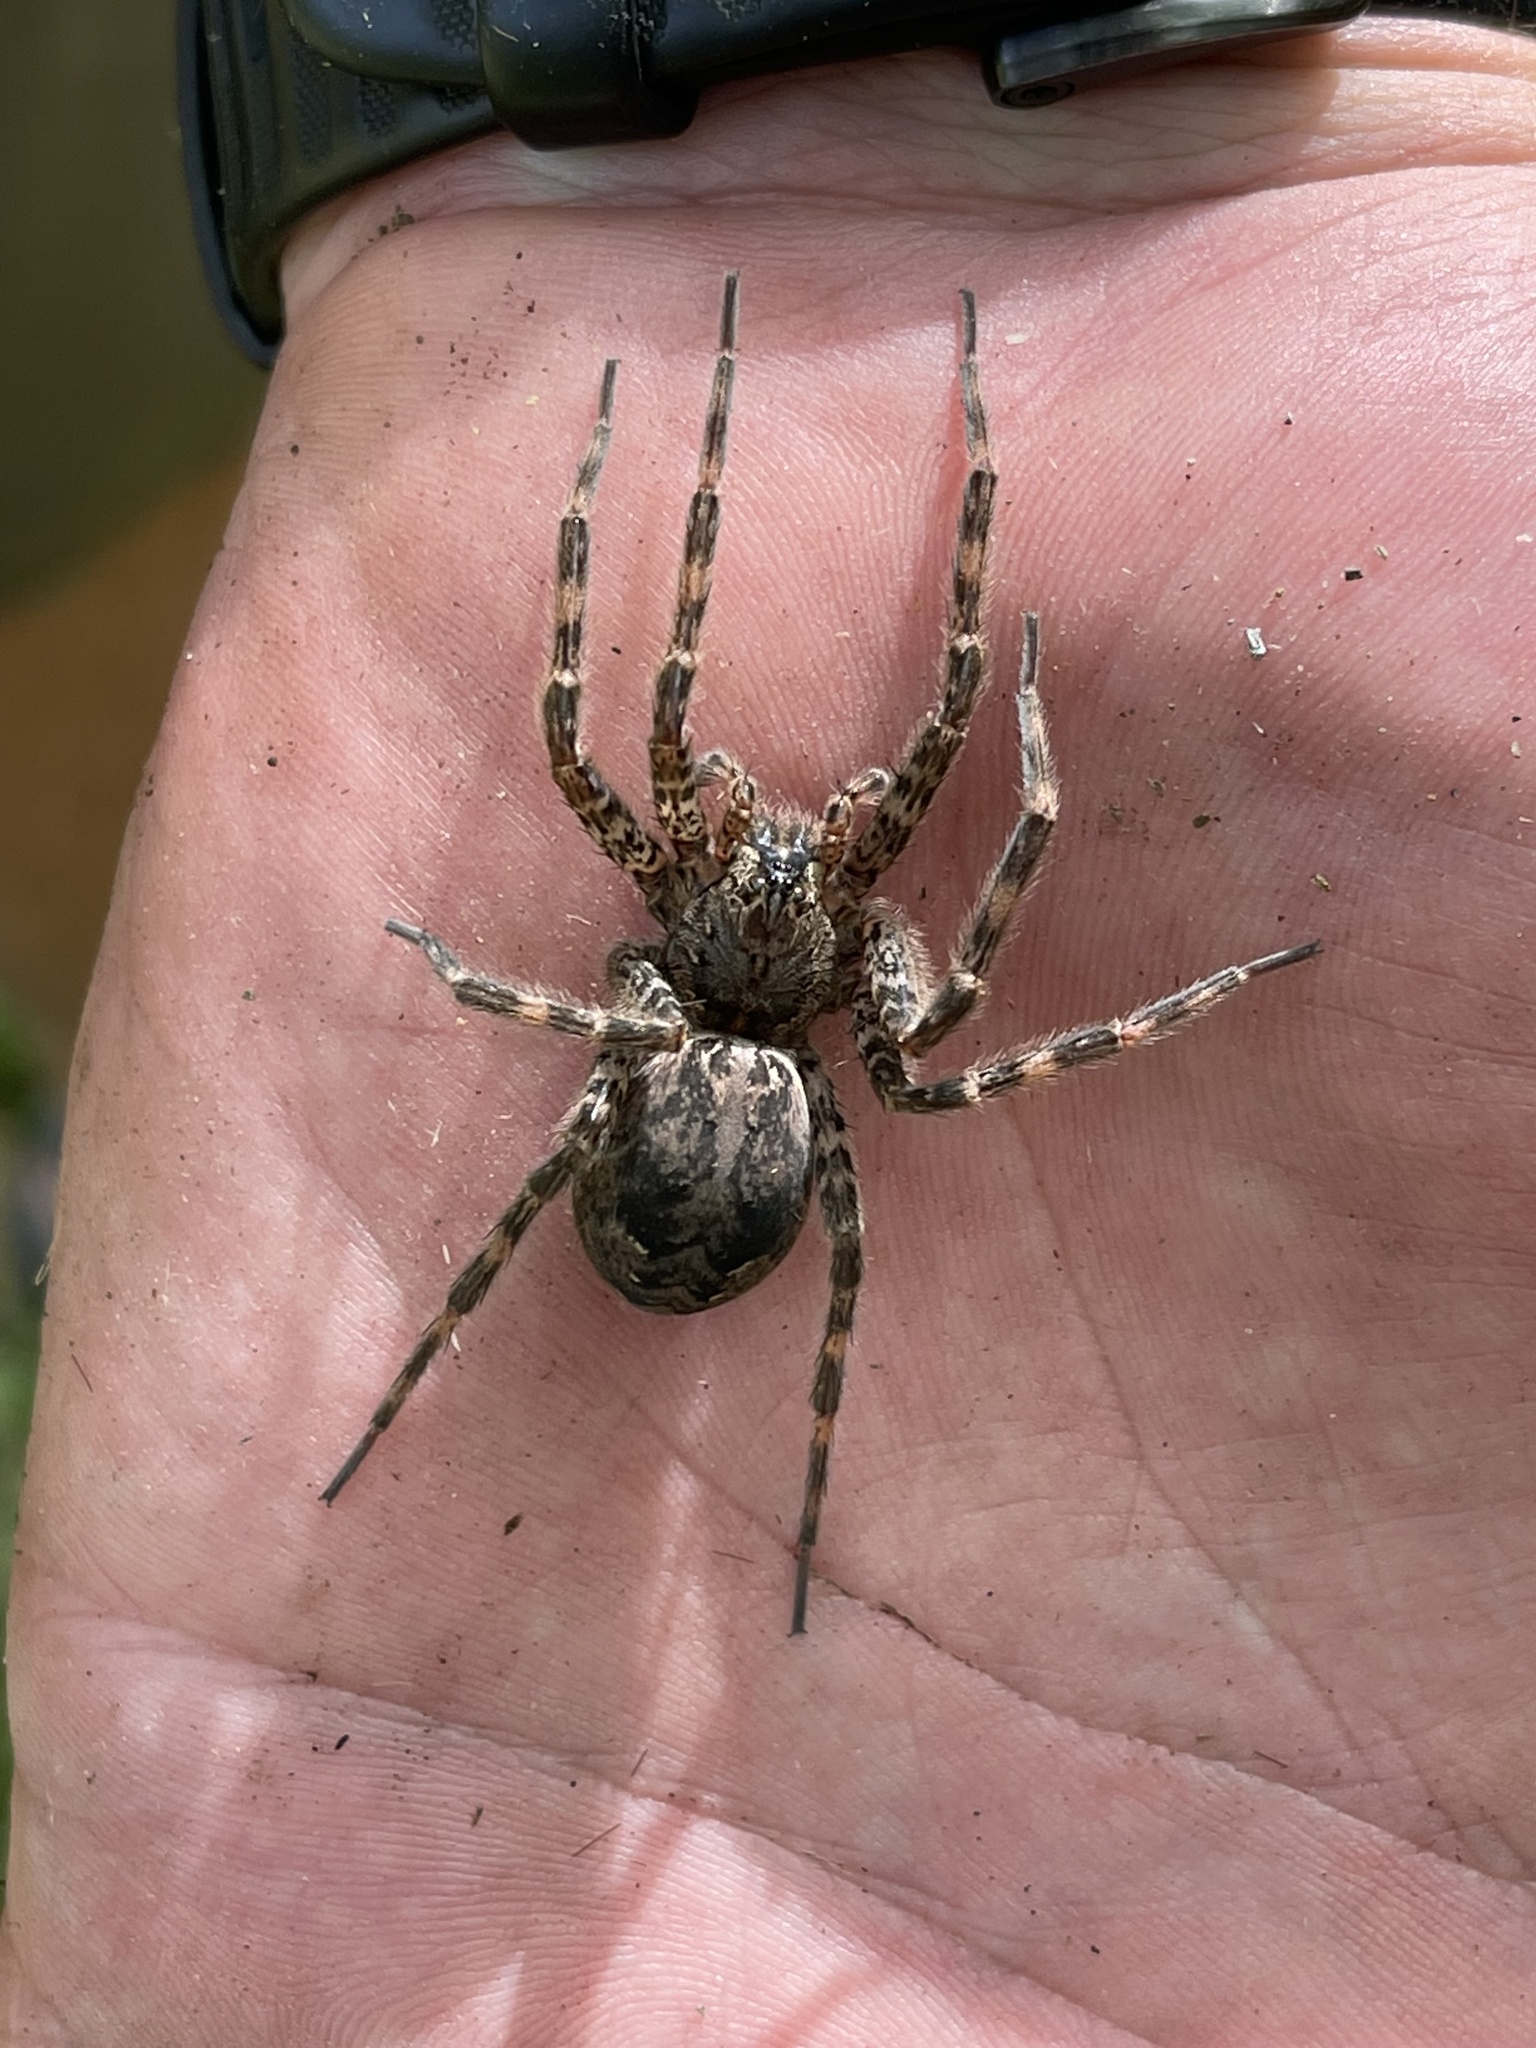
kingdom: Animalia
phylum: Arthropoda
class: Arachnida
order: Araneae
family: Pisauridae
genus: Dolomedes
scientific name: Dolomedes tenebrosus
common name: Dark fishing spider
